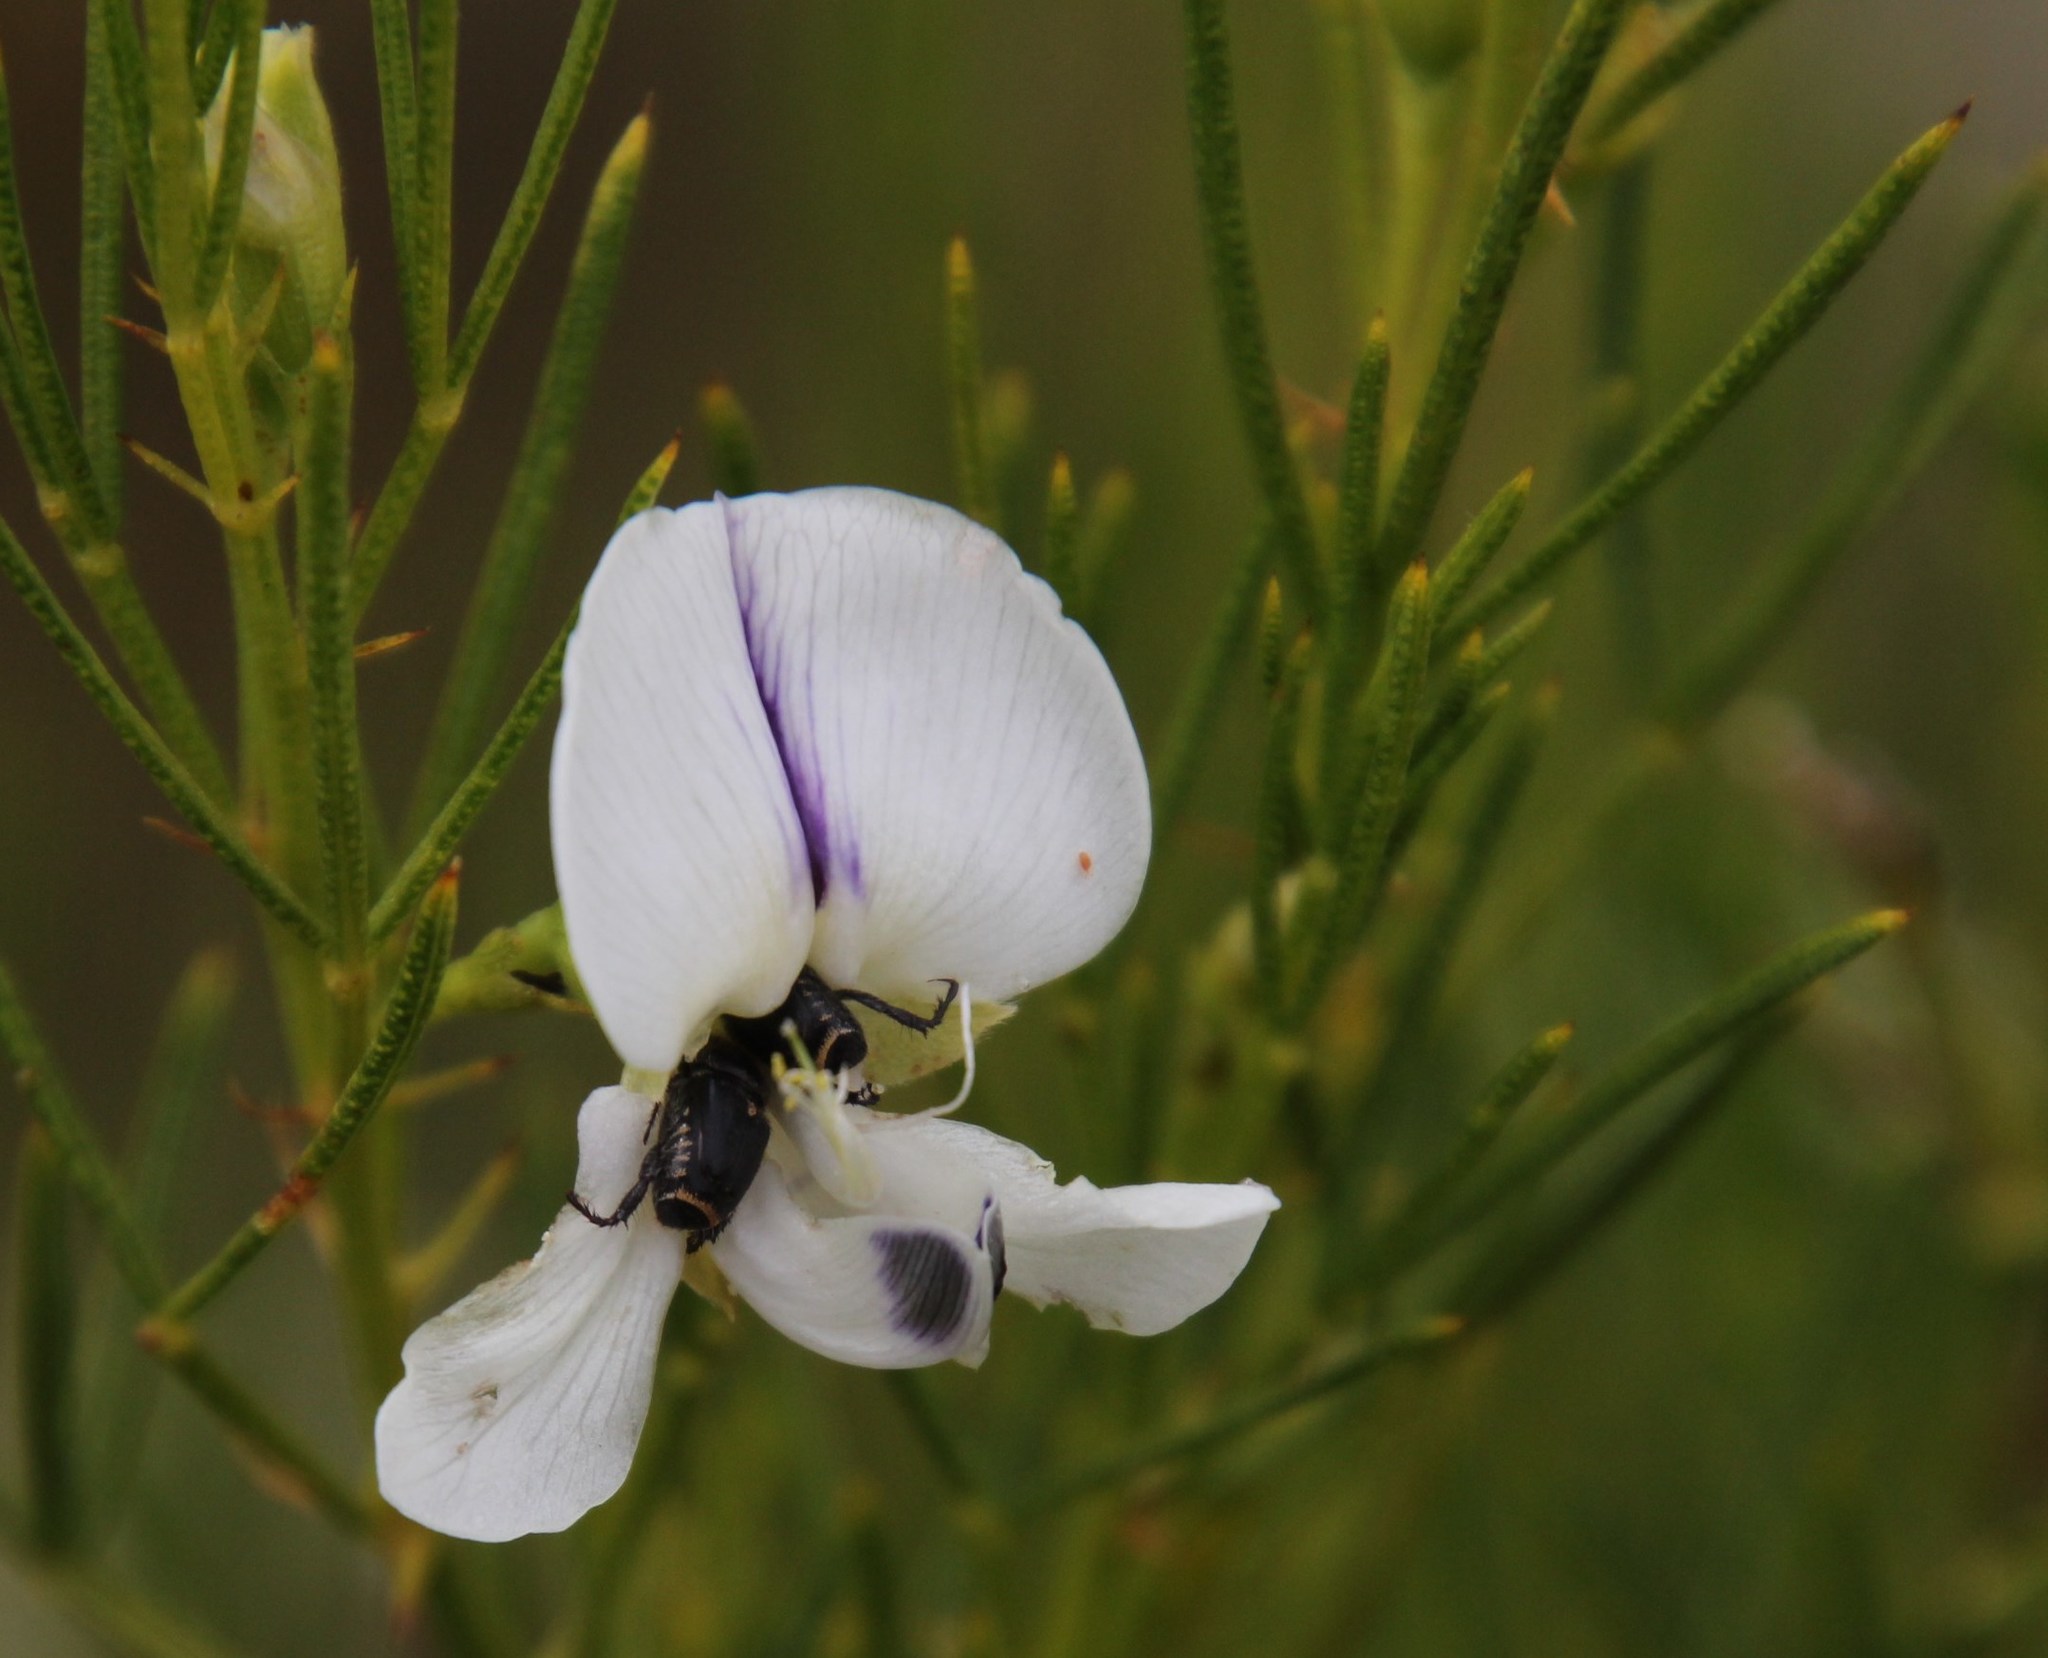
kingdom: Plantae
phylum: Tracheophyta
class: Magnoliopsida
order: Fabales
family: Fabaceae
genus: Psoralea
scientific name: Psoralea
